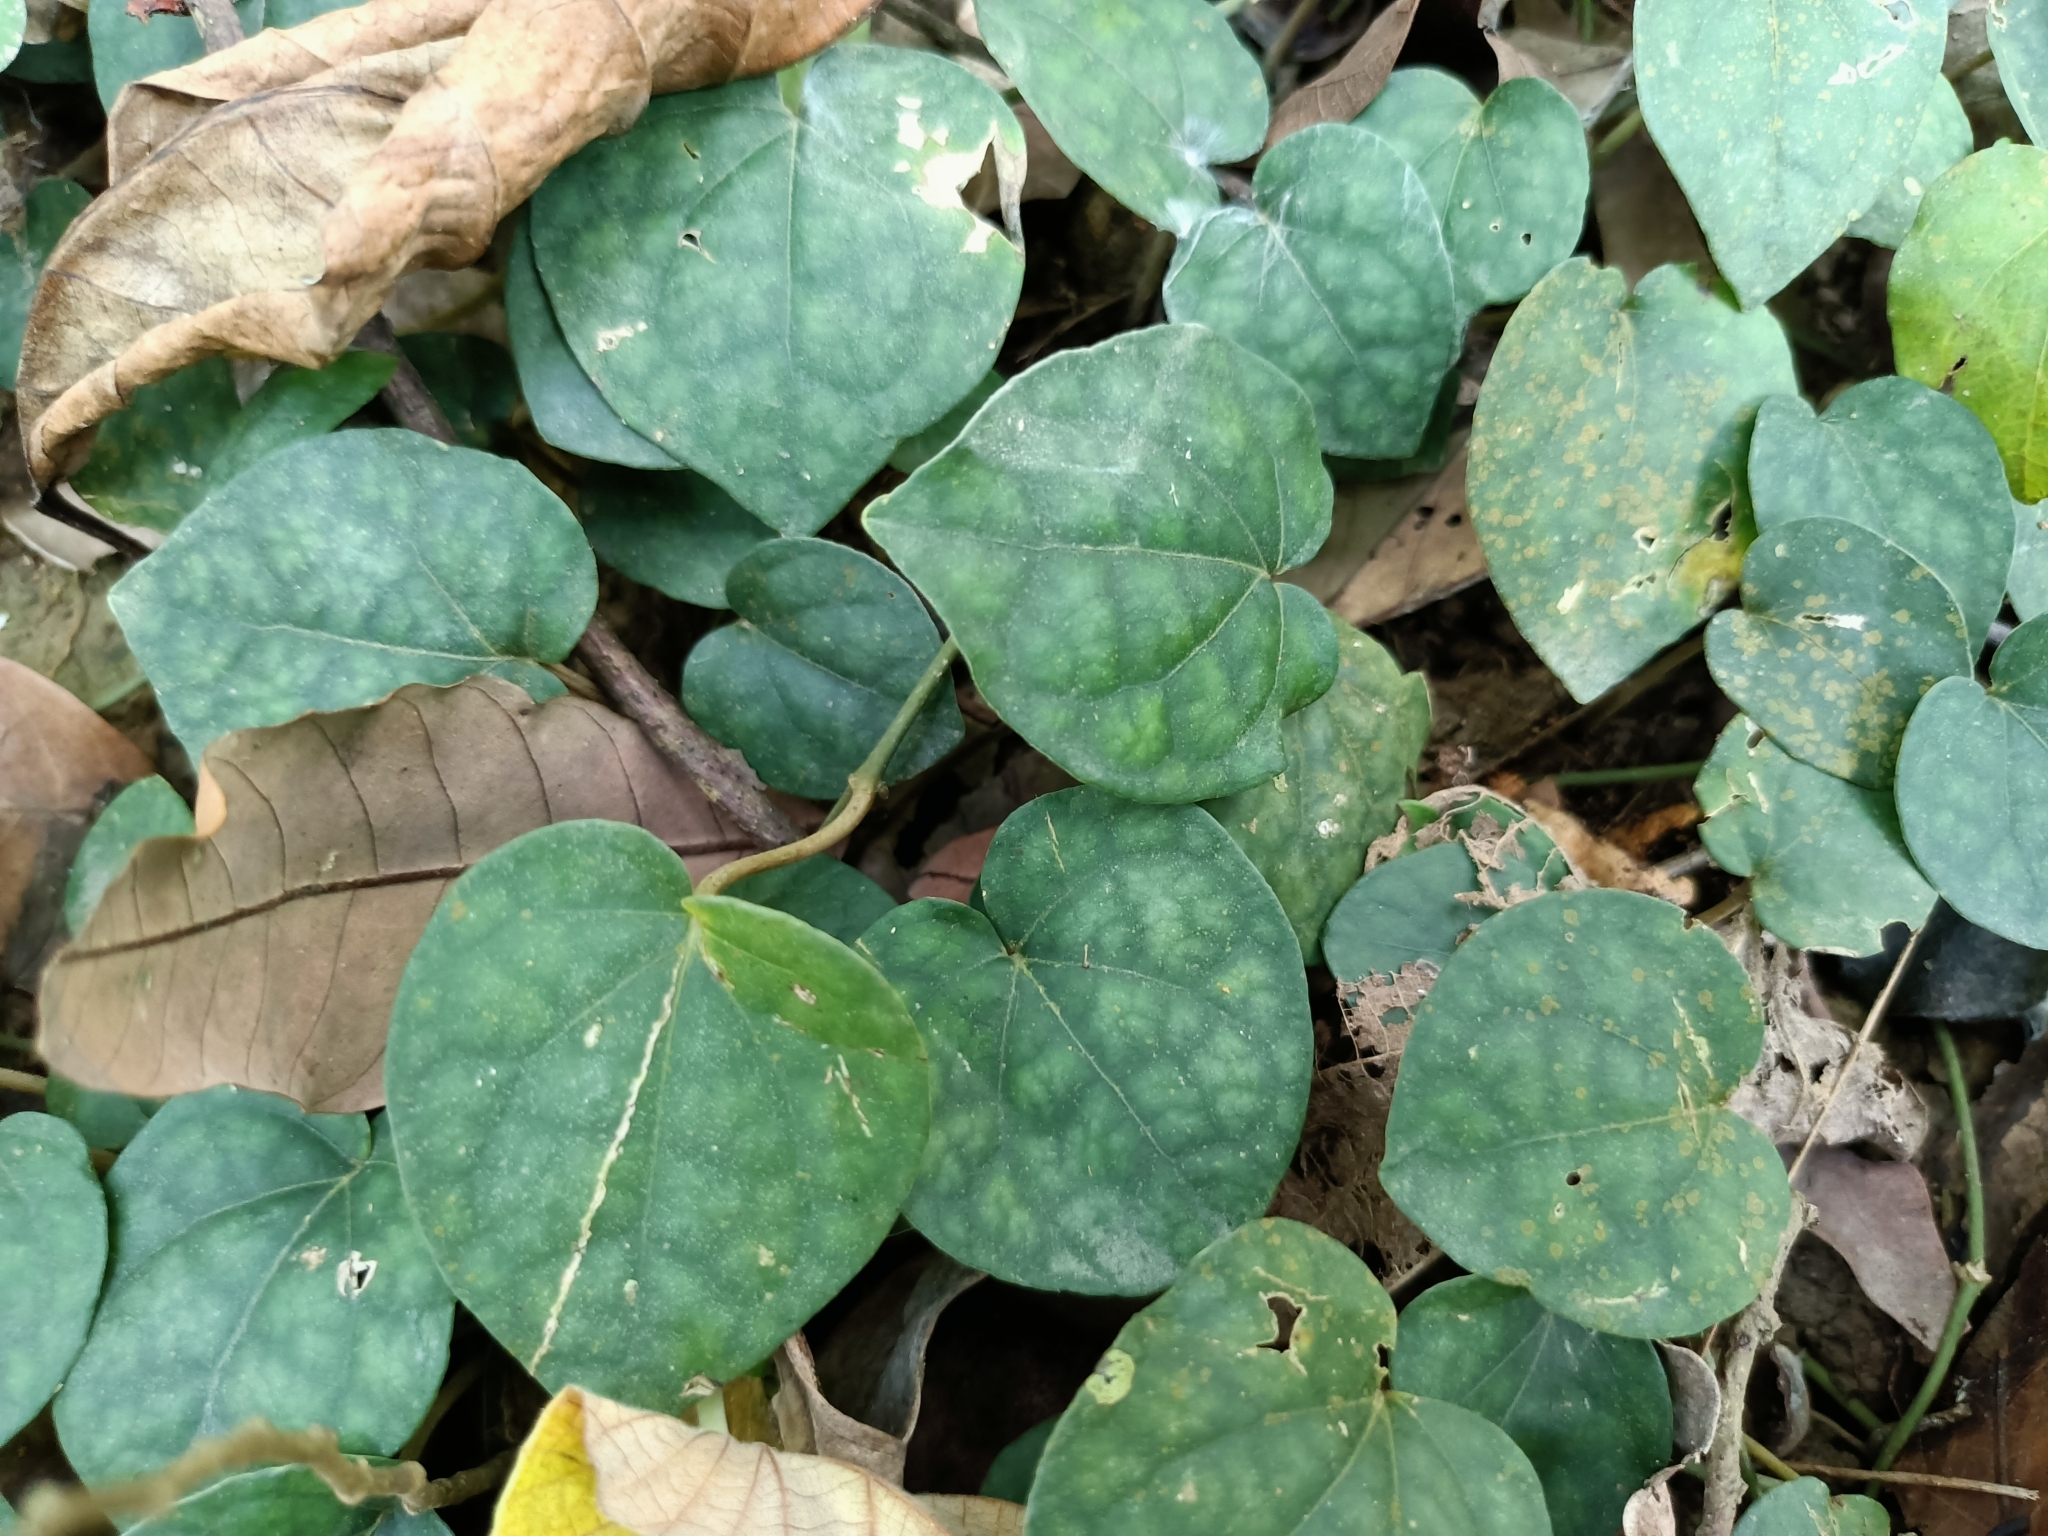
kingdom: Plantae
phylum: Tracheophyta
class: Magnoliopsida
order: Piperales
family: Piperaceae
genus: Piper
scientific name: Piper kadsura
